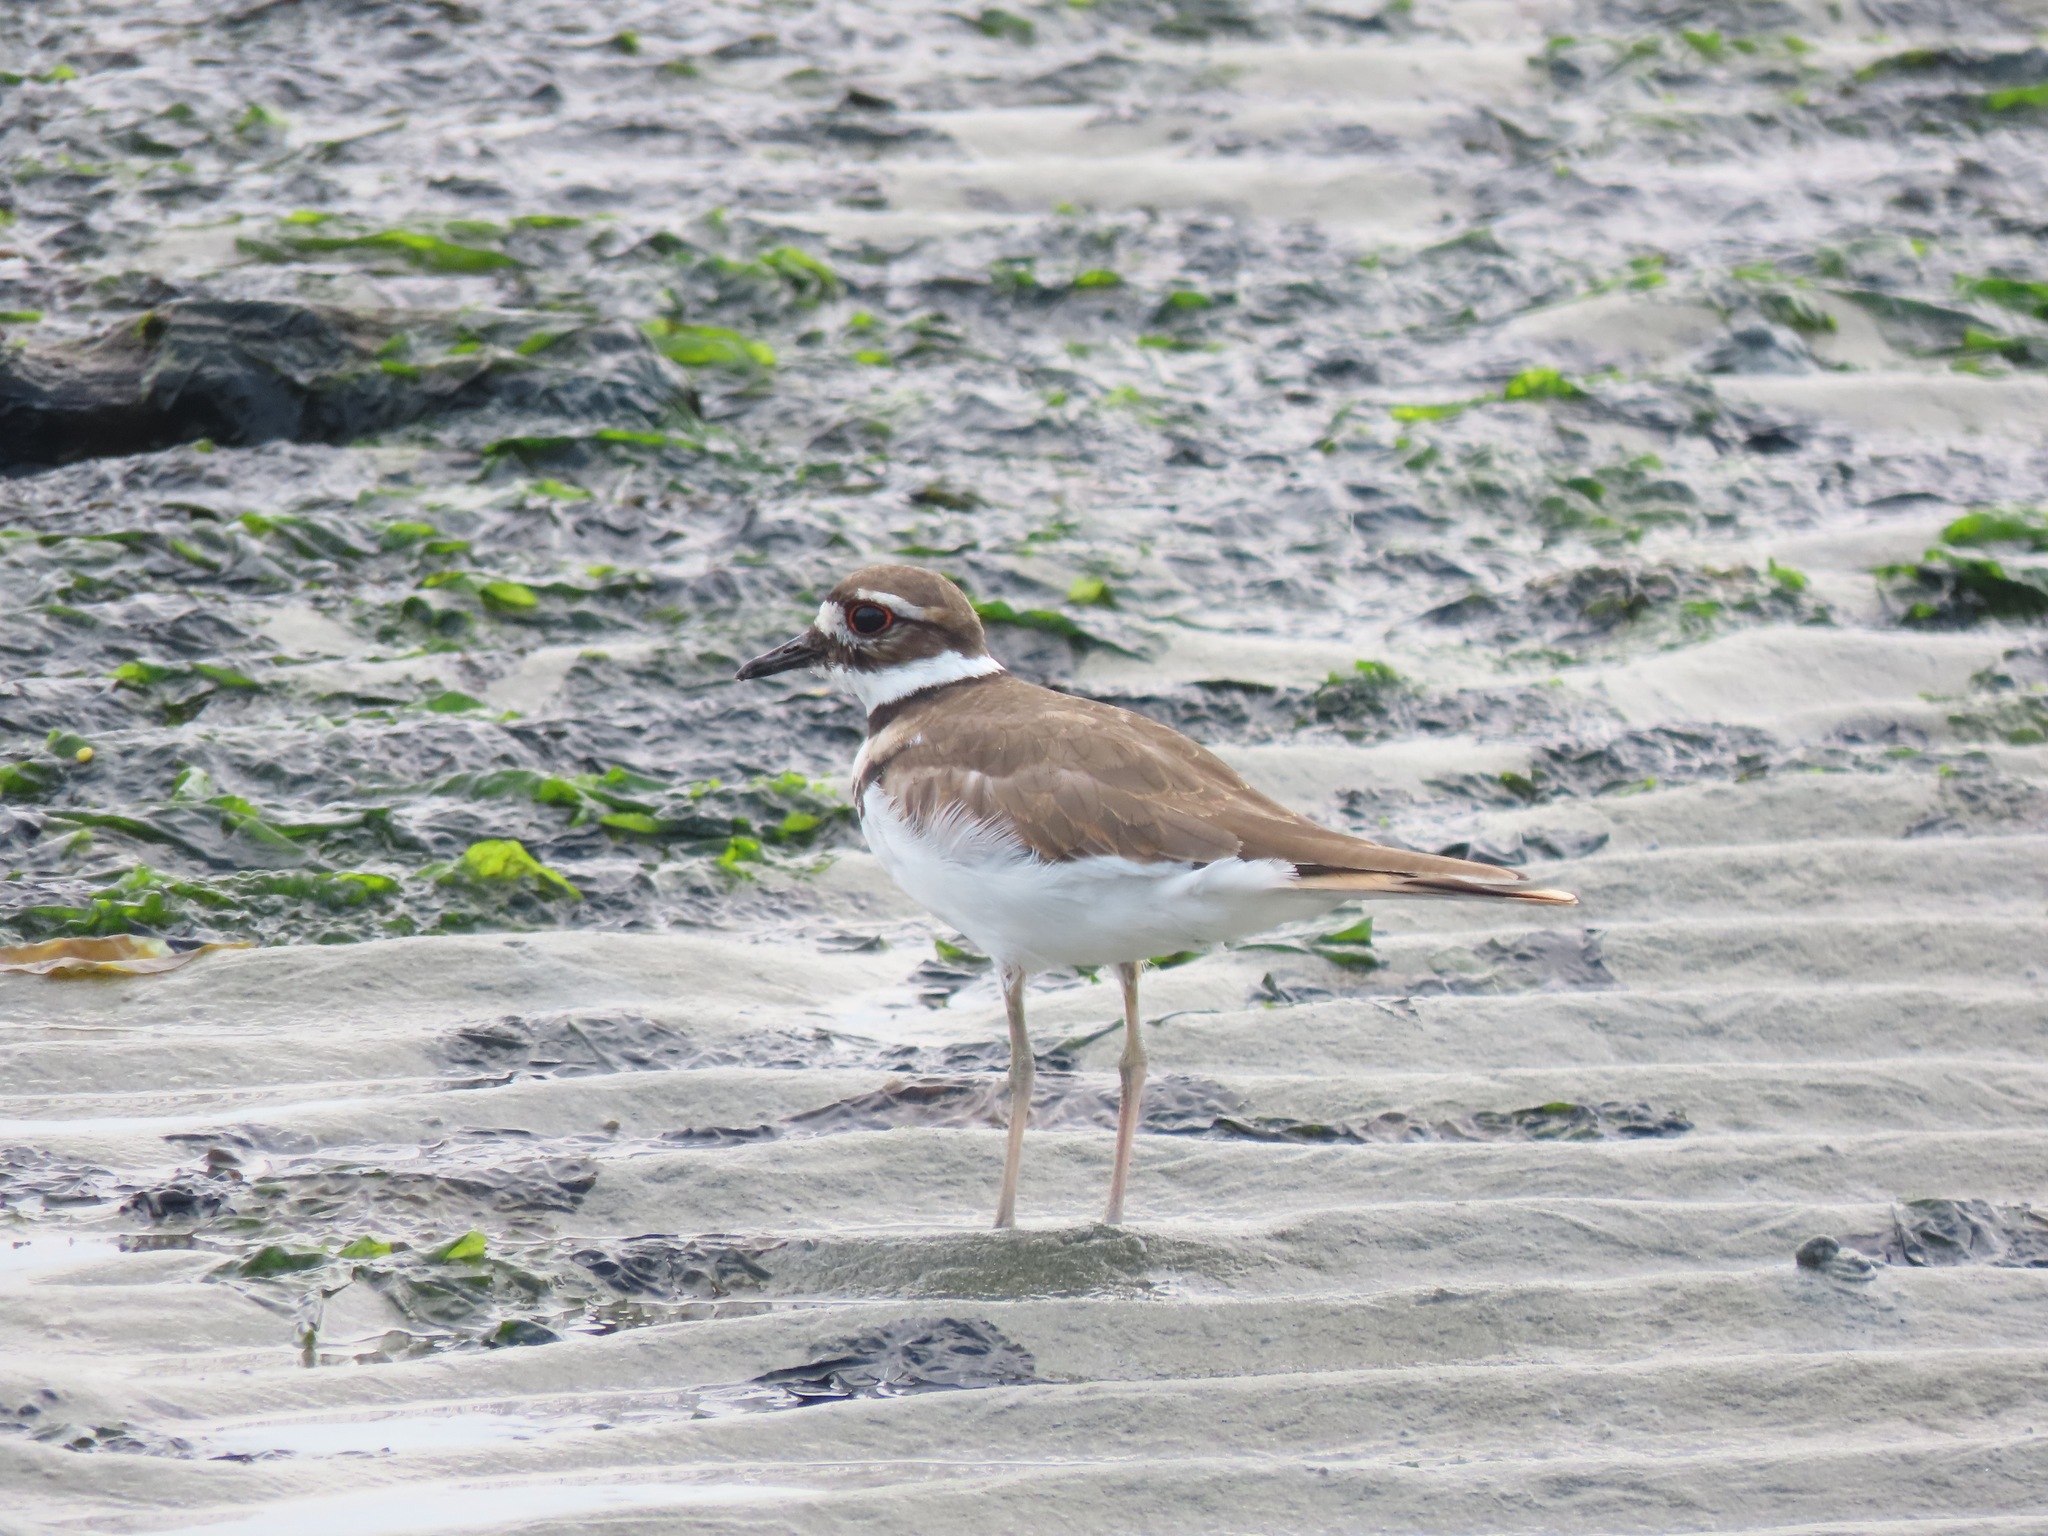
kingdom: Animalia
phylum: Chordata
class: Aves
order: Charadriiformes
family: Charadriidae
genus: Charadrius
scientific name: Charadrius vociferus
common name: Killdeer
